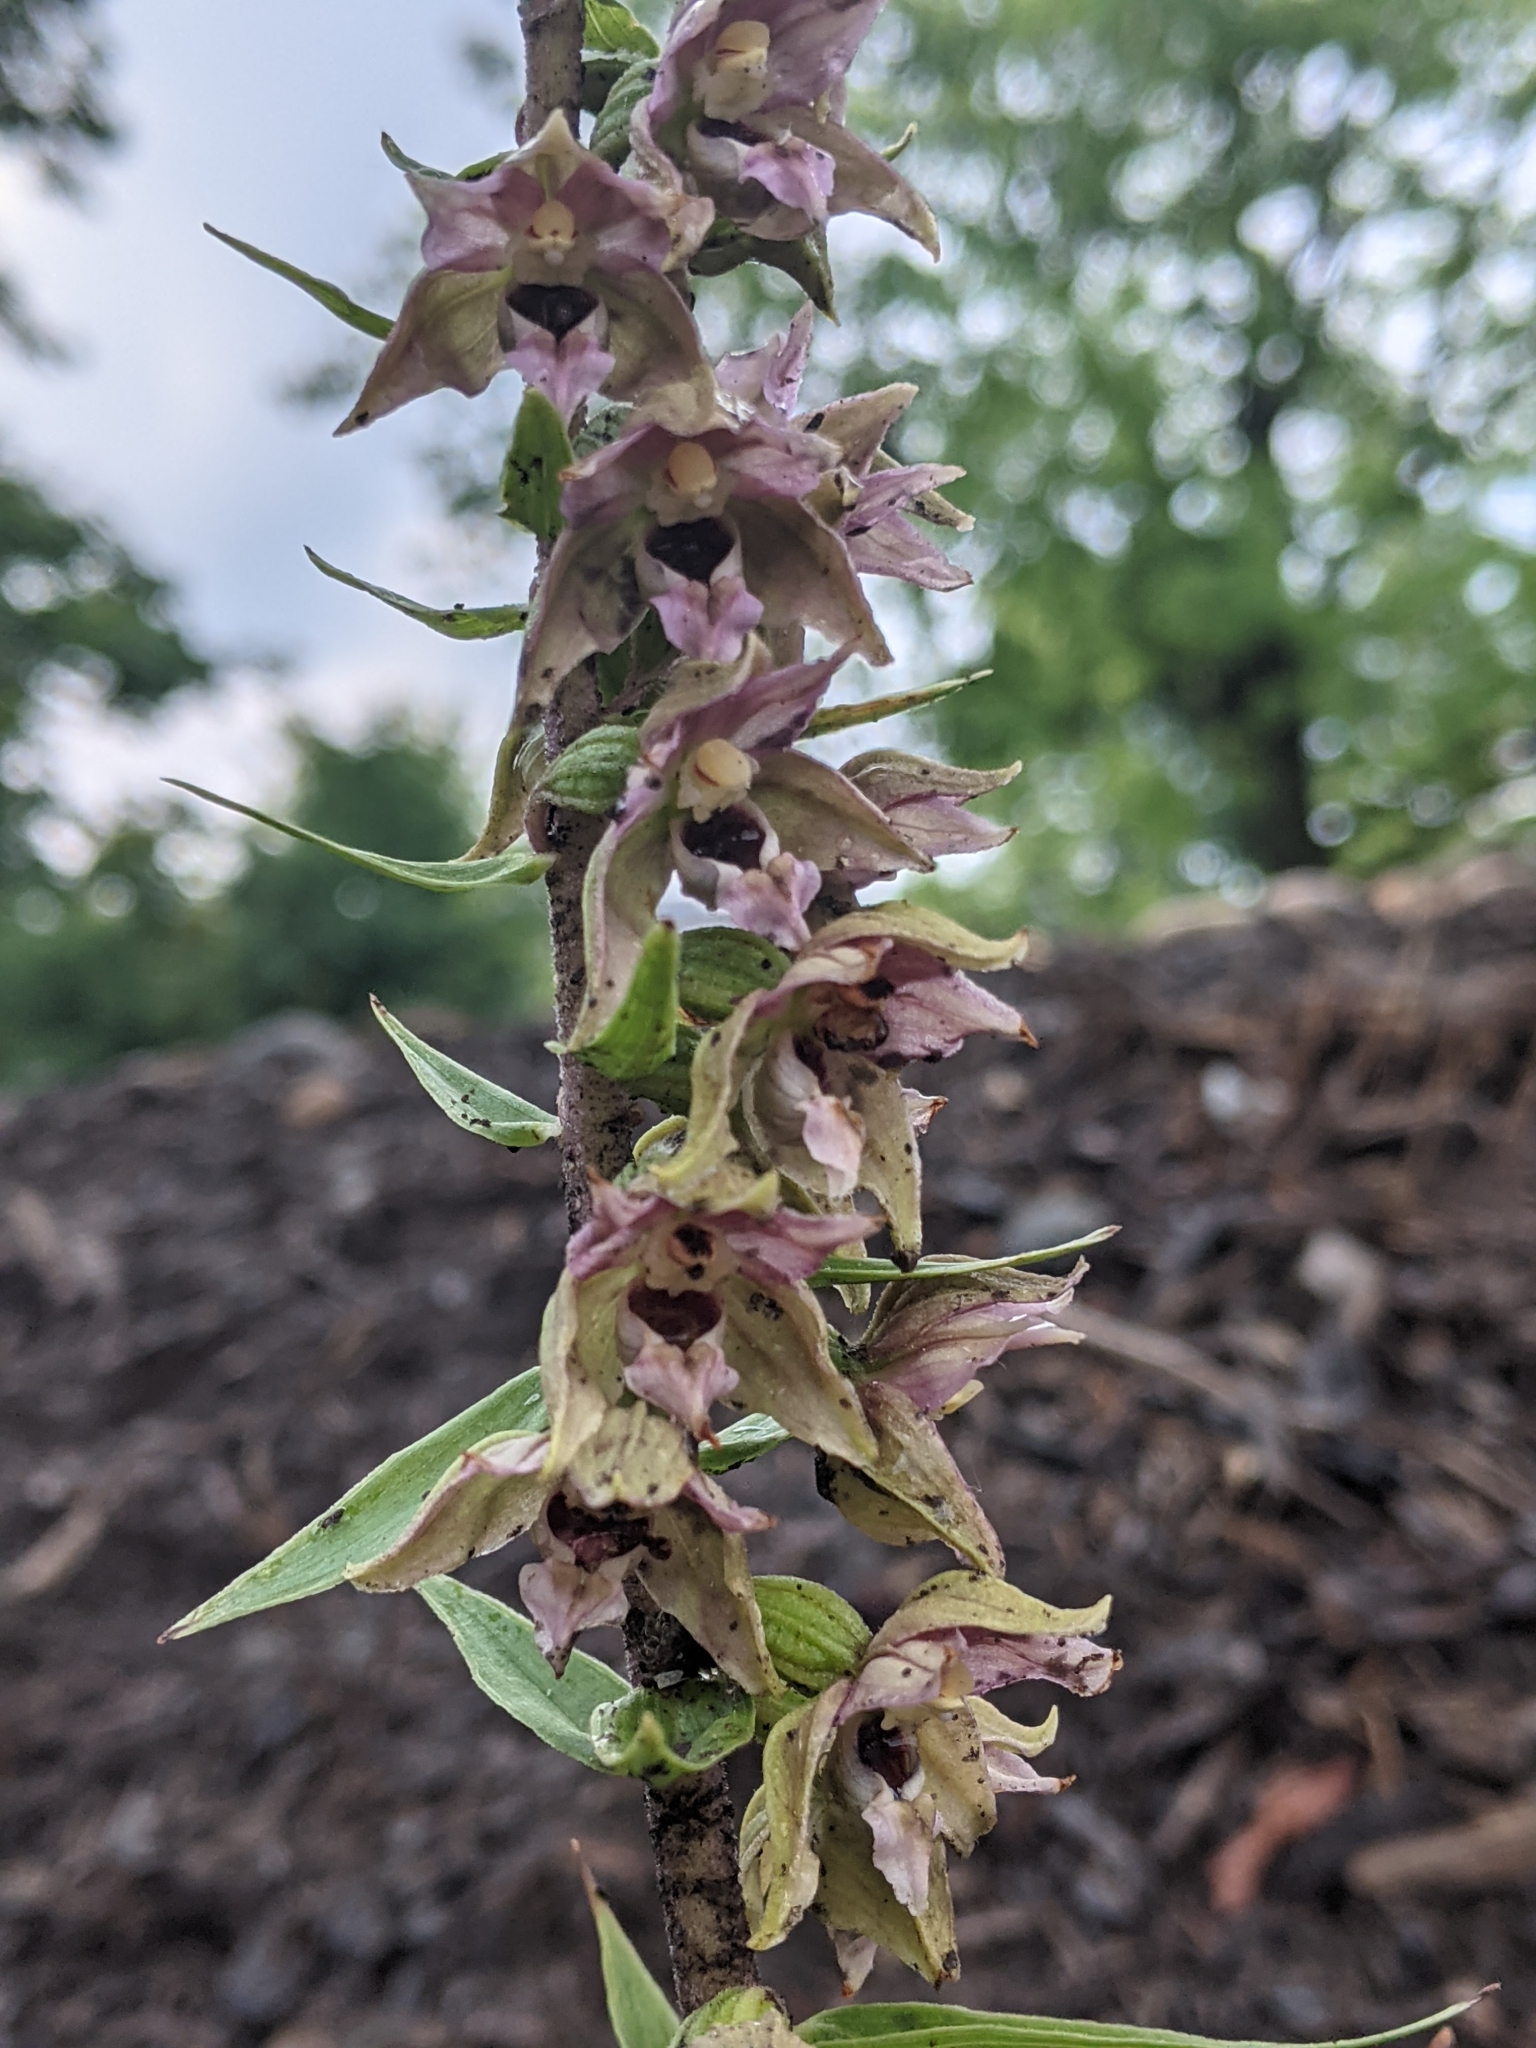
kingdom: Plantae
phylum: Tracheophyta
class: Liliopsida
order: Asparagales
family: Orchidaceae
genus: Epipactis
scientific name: Epipactis helleborine
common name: Broad-leaved helleborine
